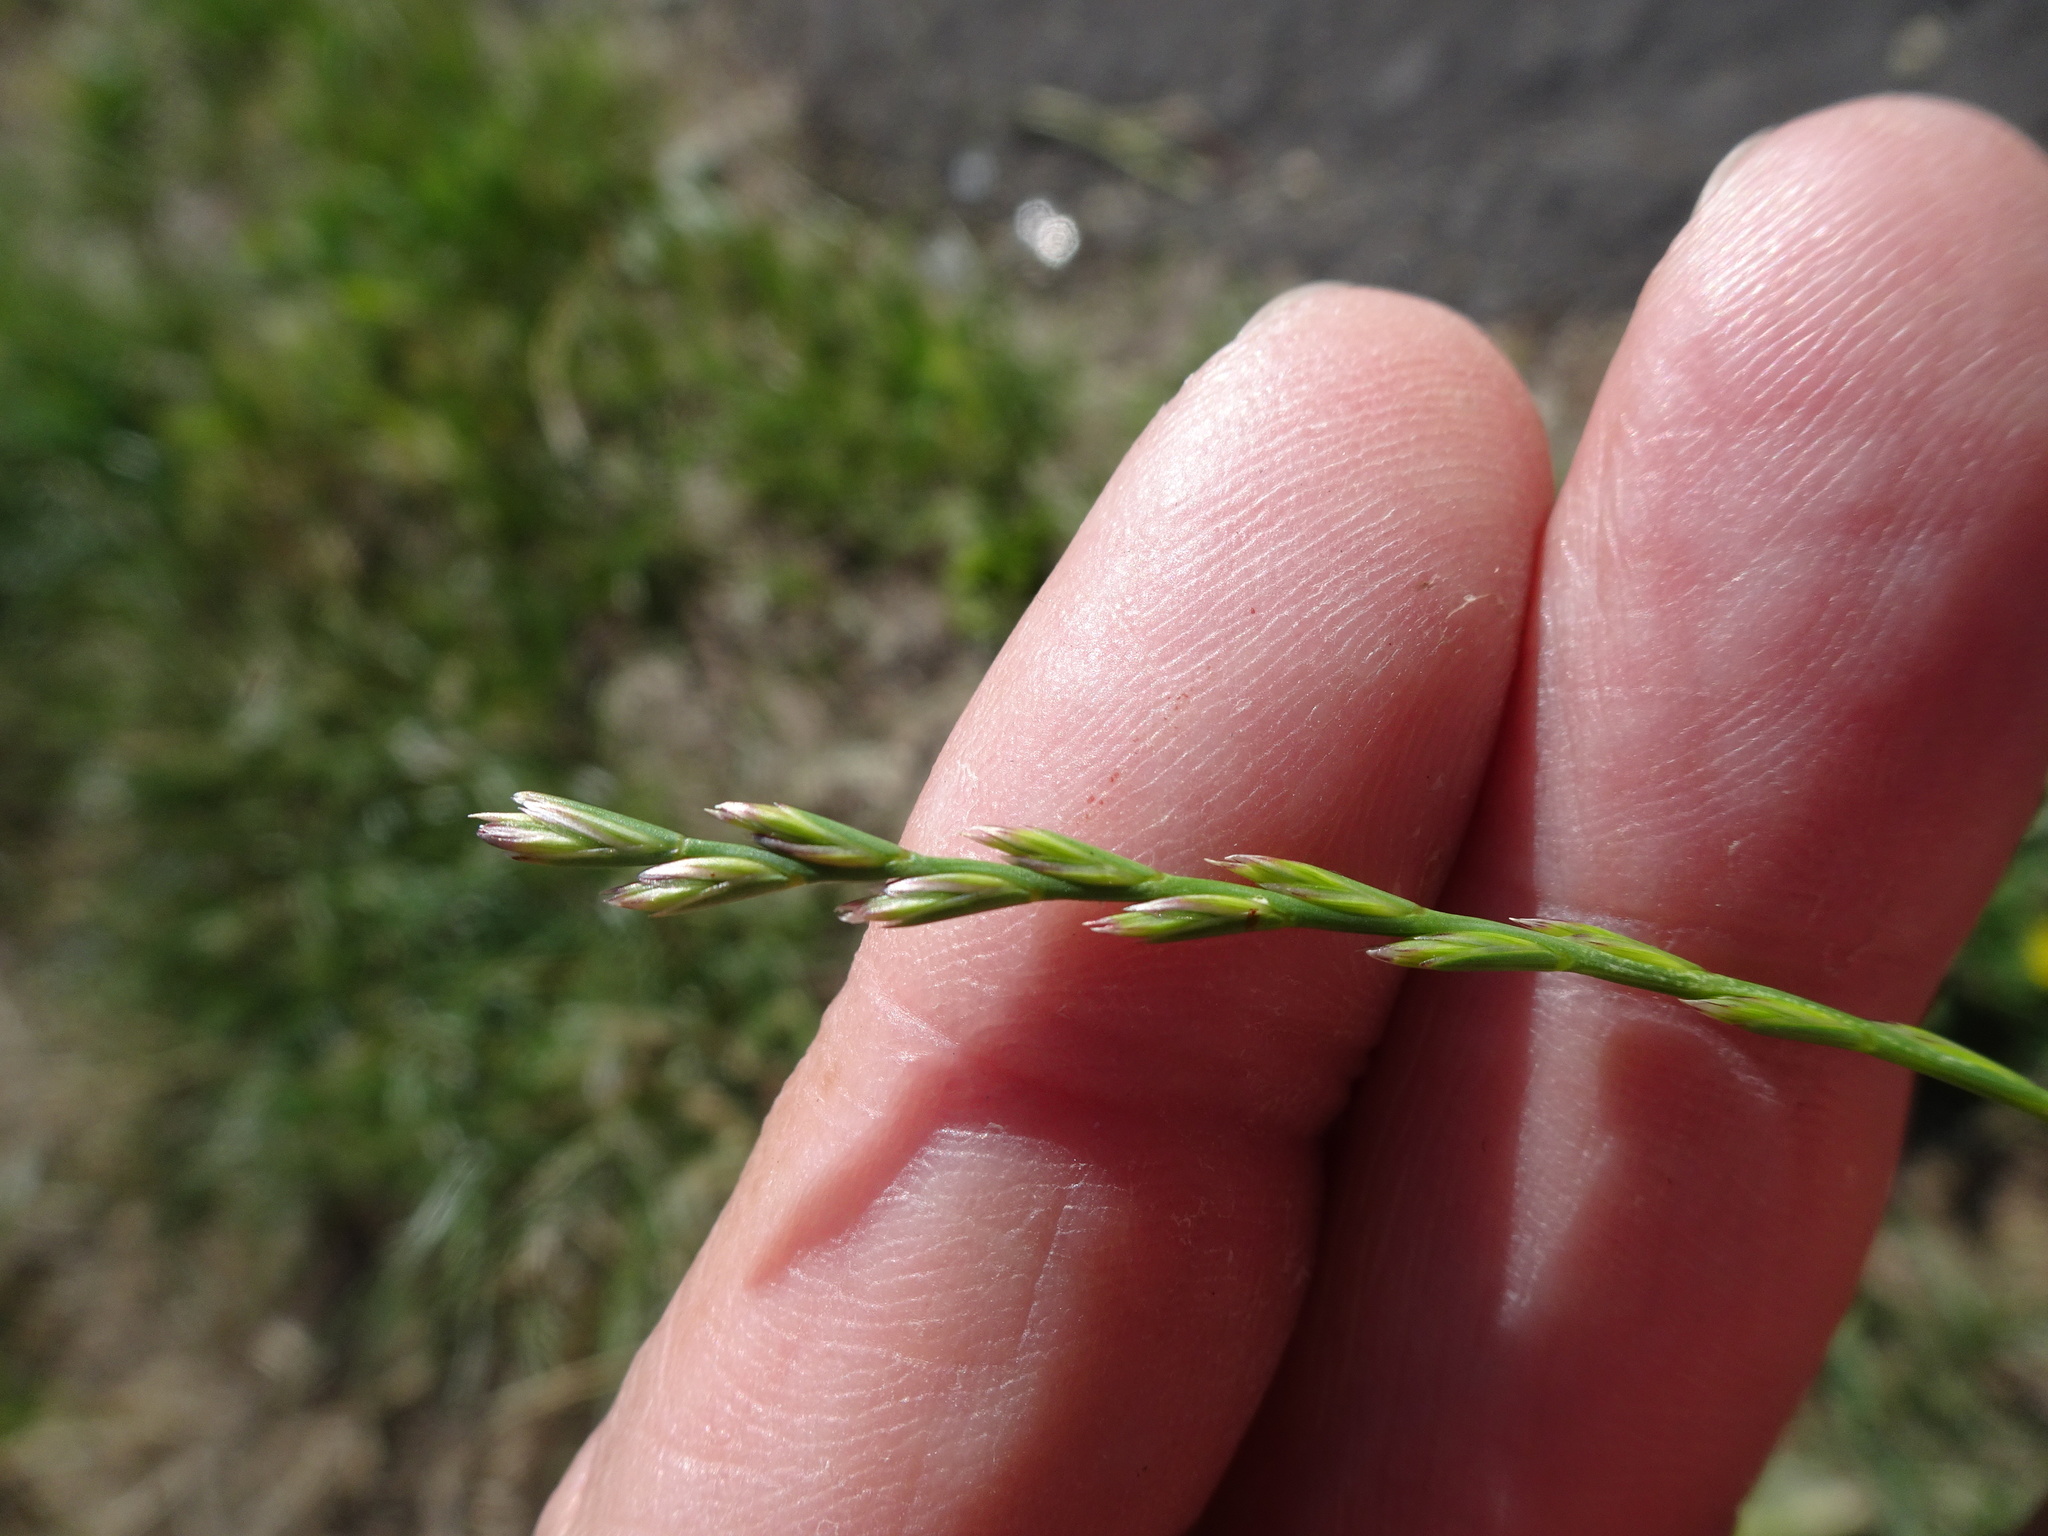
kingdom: Plantae
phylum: Tracheophyta
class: Liliopsida
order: Poales
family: Poaceae
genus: Lolium
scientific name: Lolium perenne
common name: Perennial ryegrass
